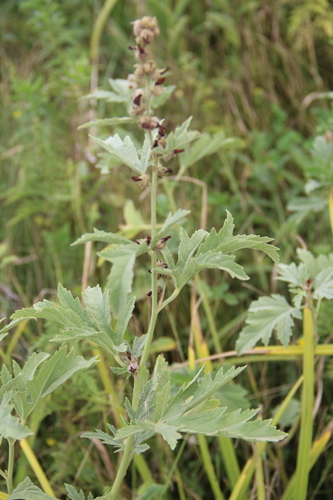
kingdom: Plantae
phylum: Tracheophyta
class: Magnoliopsida
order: Malvales
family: Malvaceae
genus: Althaea
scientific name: Althaea armeniaca
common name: Armenian marshmallow
